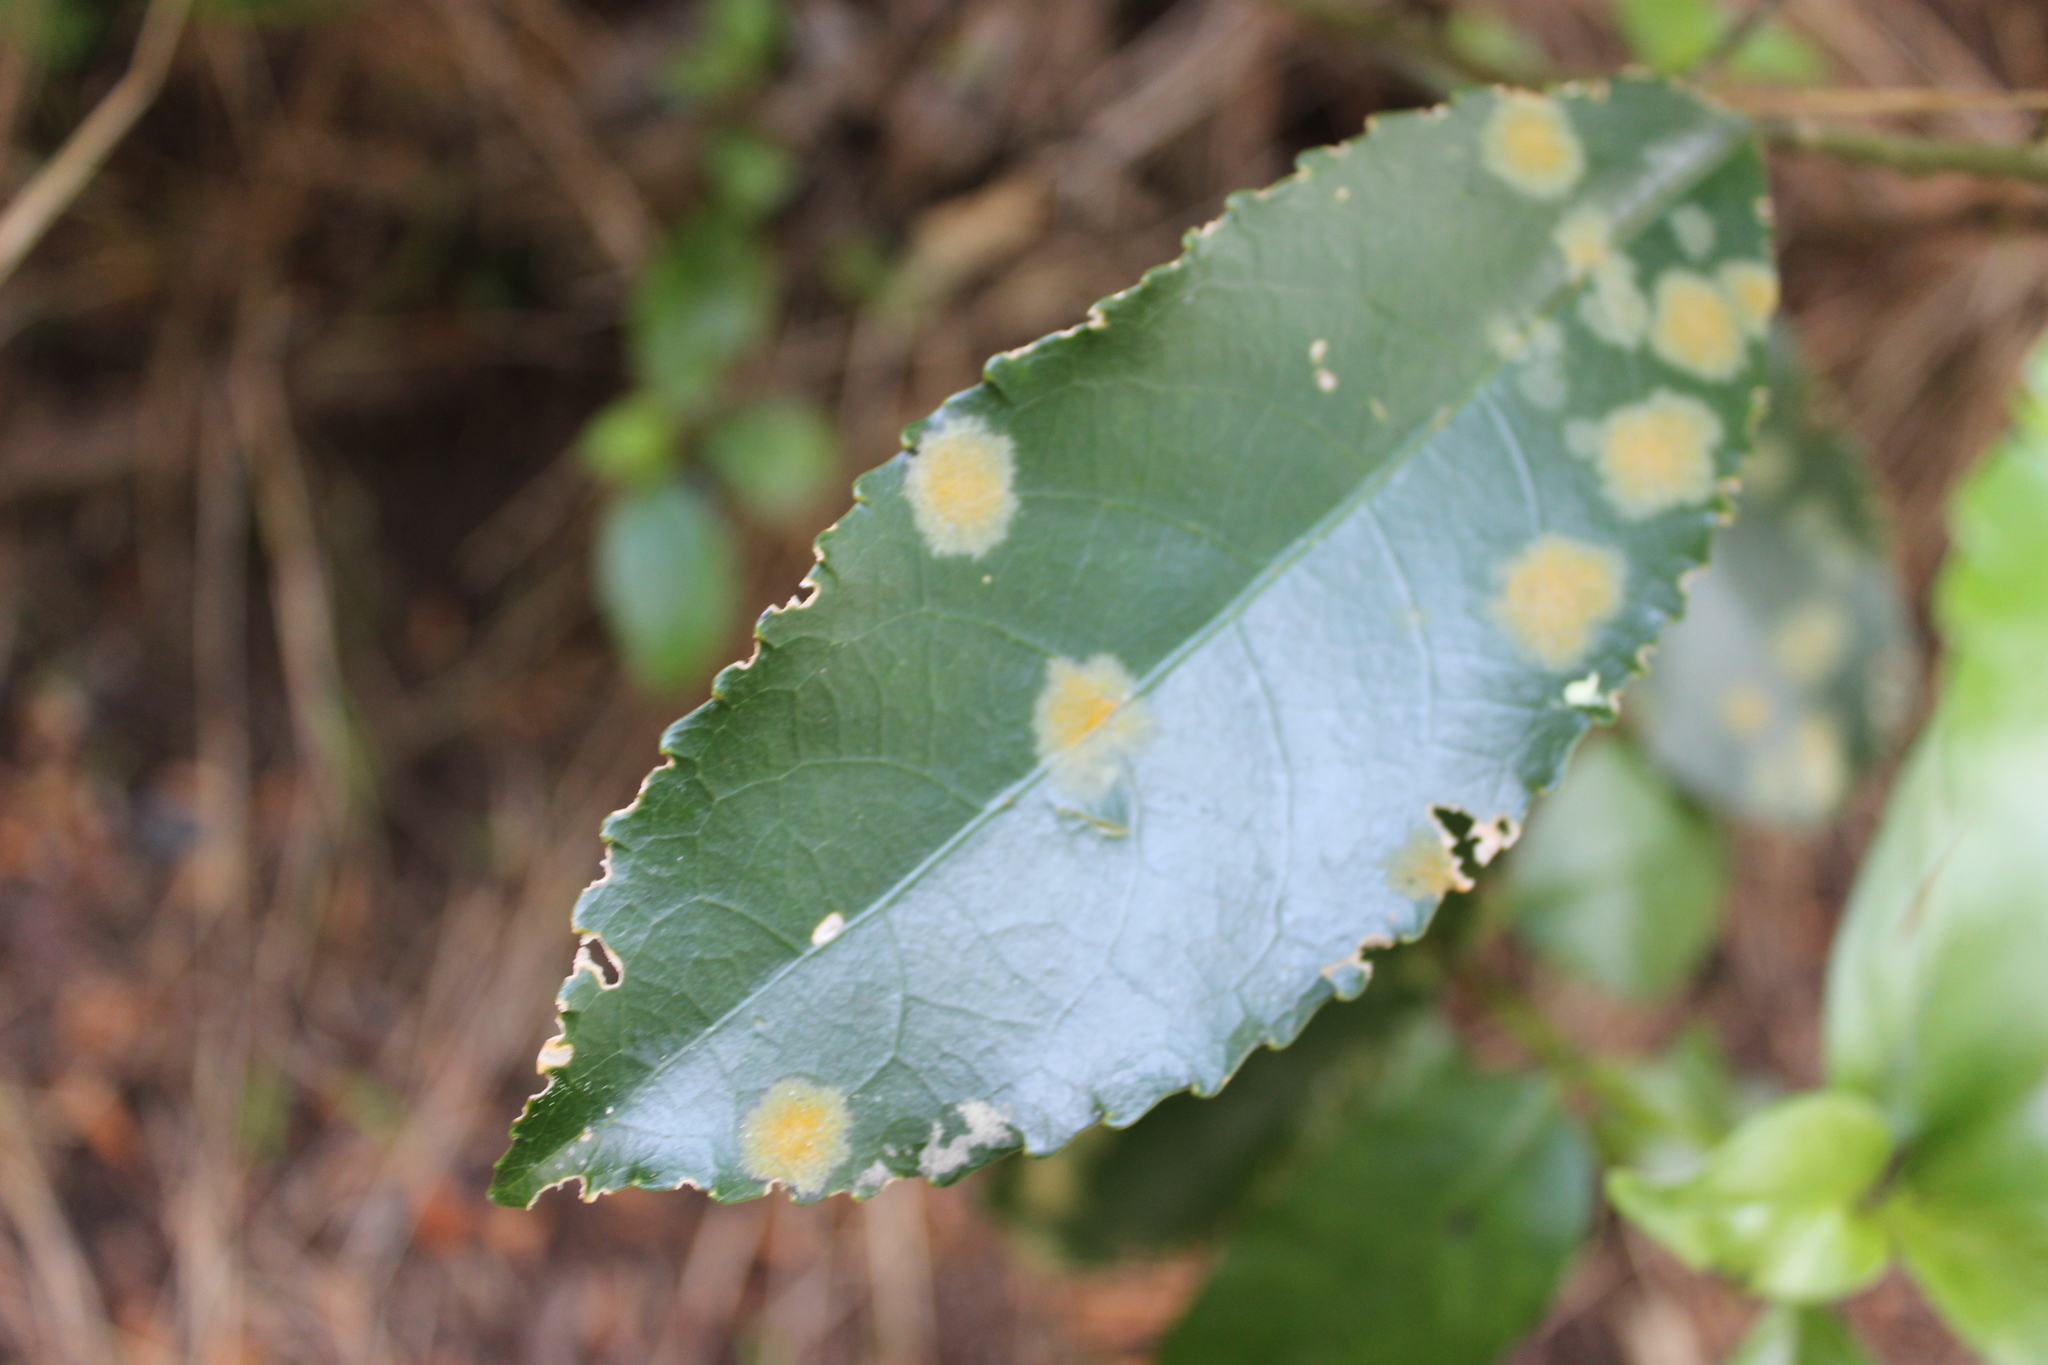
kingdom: Plantae
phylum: Chlorophyta
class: Ulvophyceae
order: Trentepohliales
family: Trentepohliaceae
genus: Cephaleuros
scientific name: Cephaleuros
